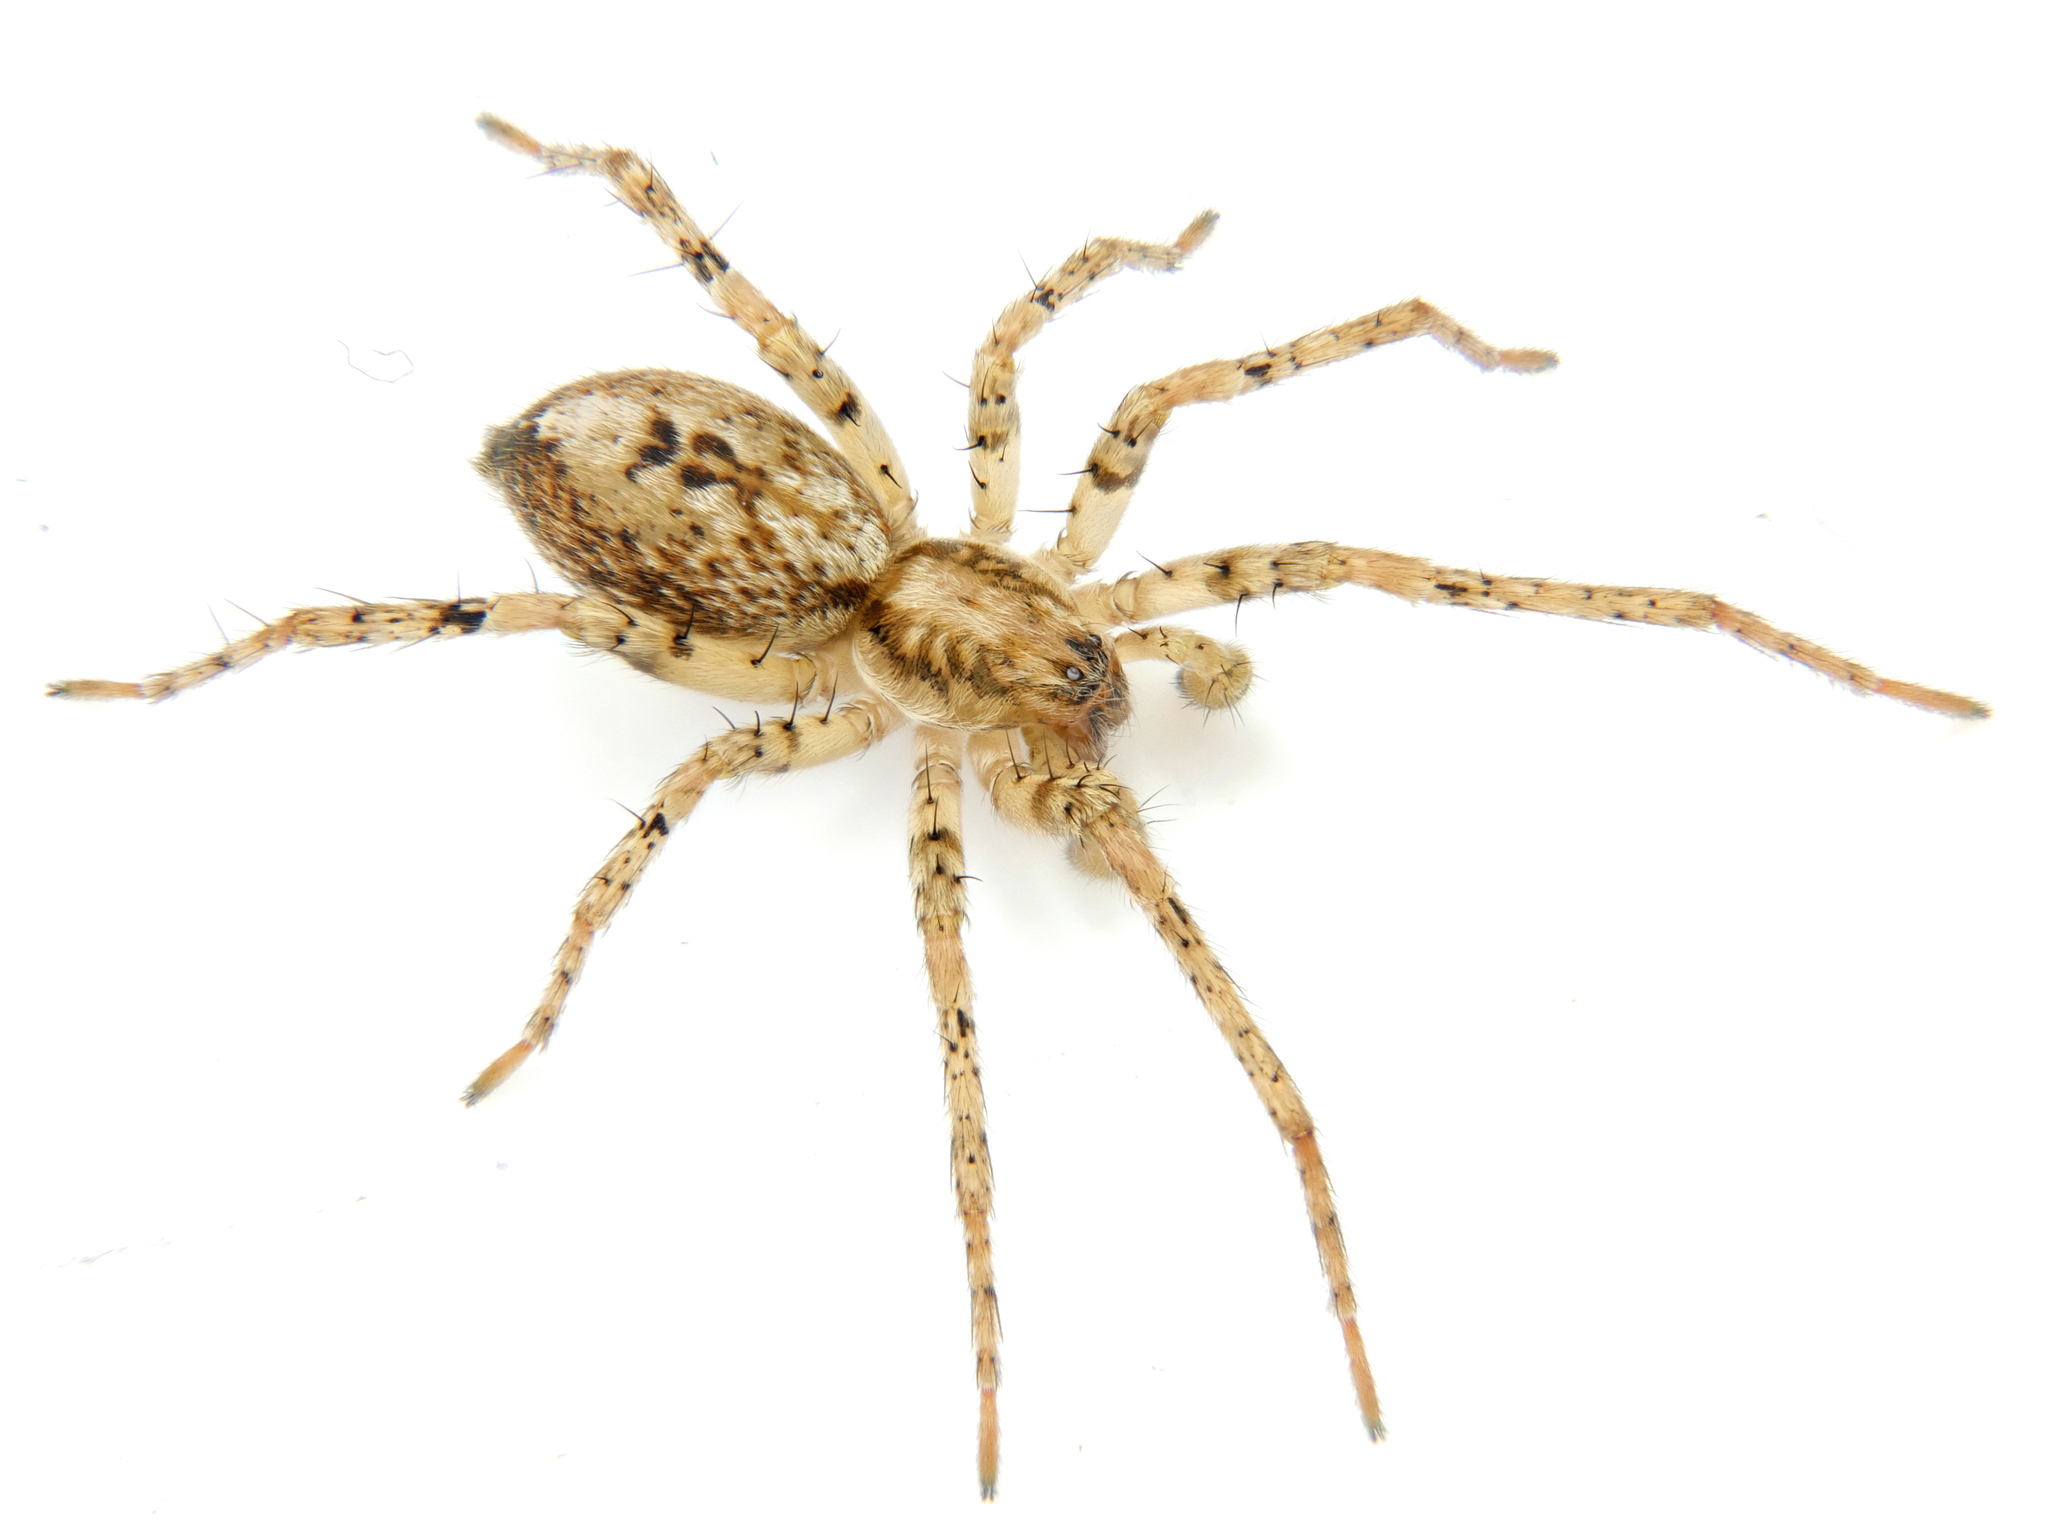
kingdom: Animalia
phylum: Arthropoda
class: Arachnida
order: Araneae
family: Anyphaenidae
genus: Anyphaena
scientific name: Anyphaena accentuata
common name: Buzzing spider
